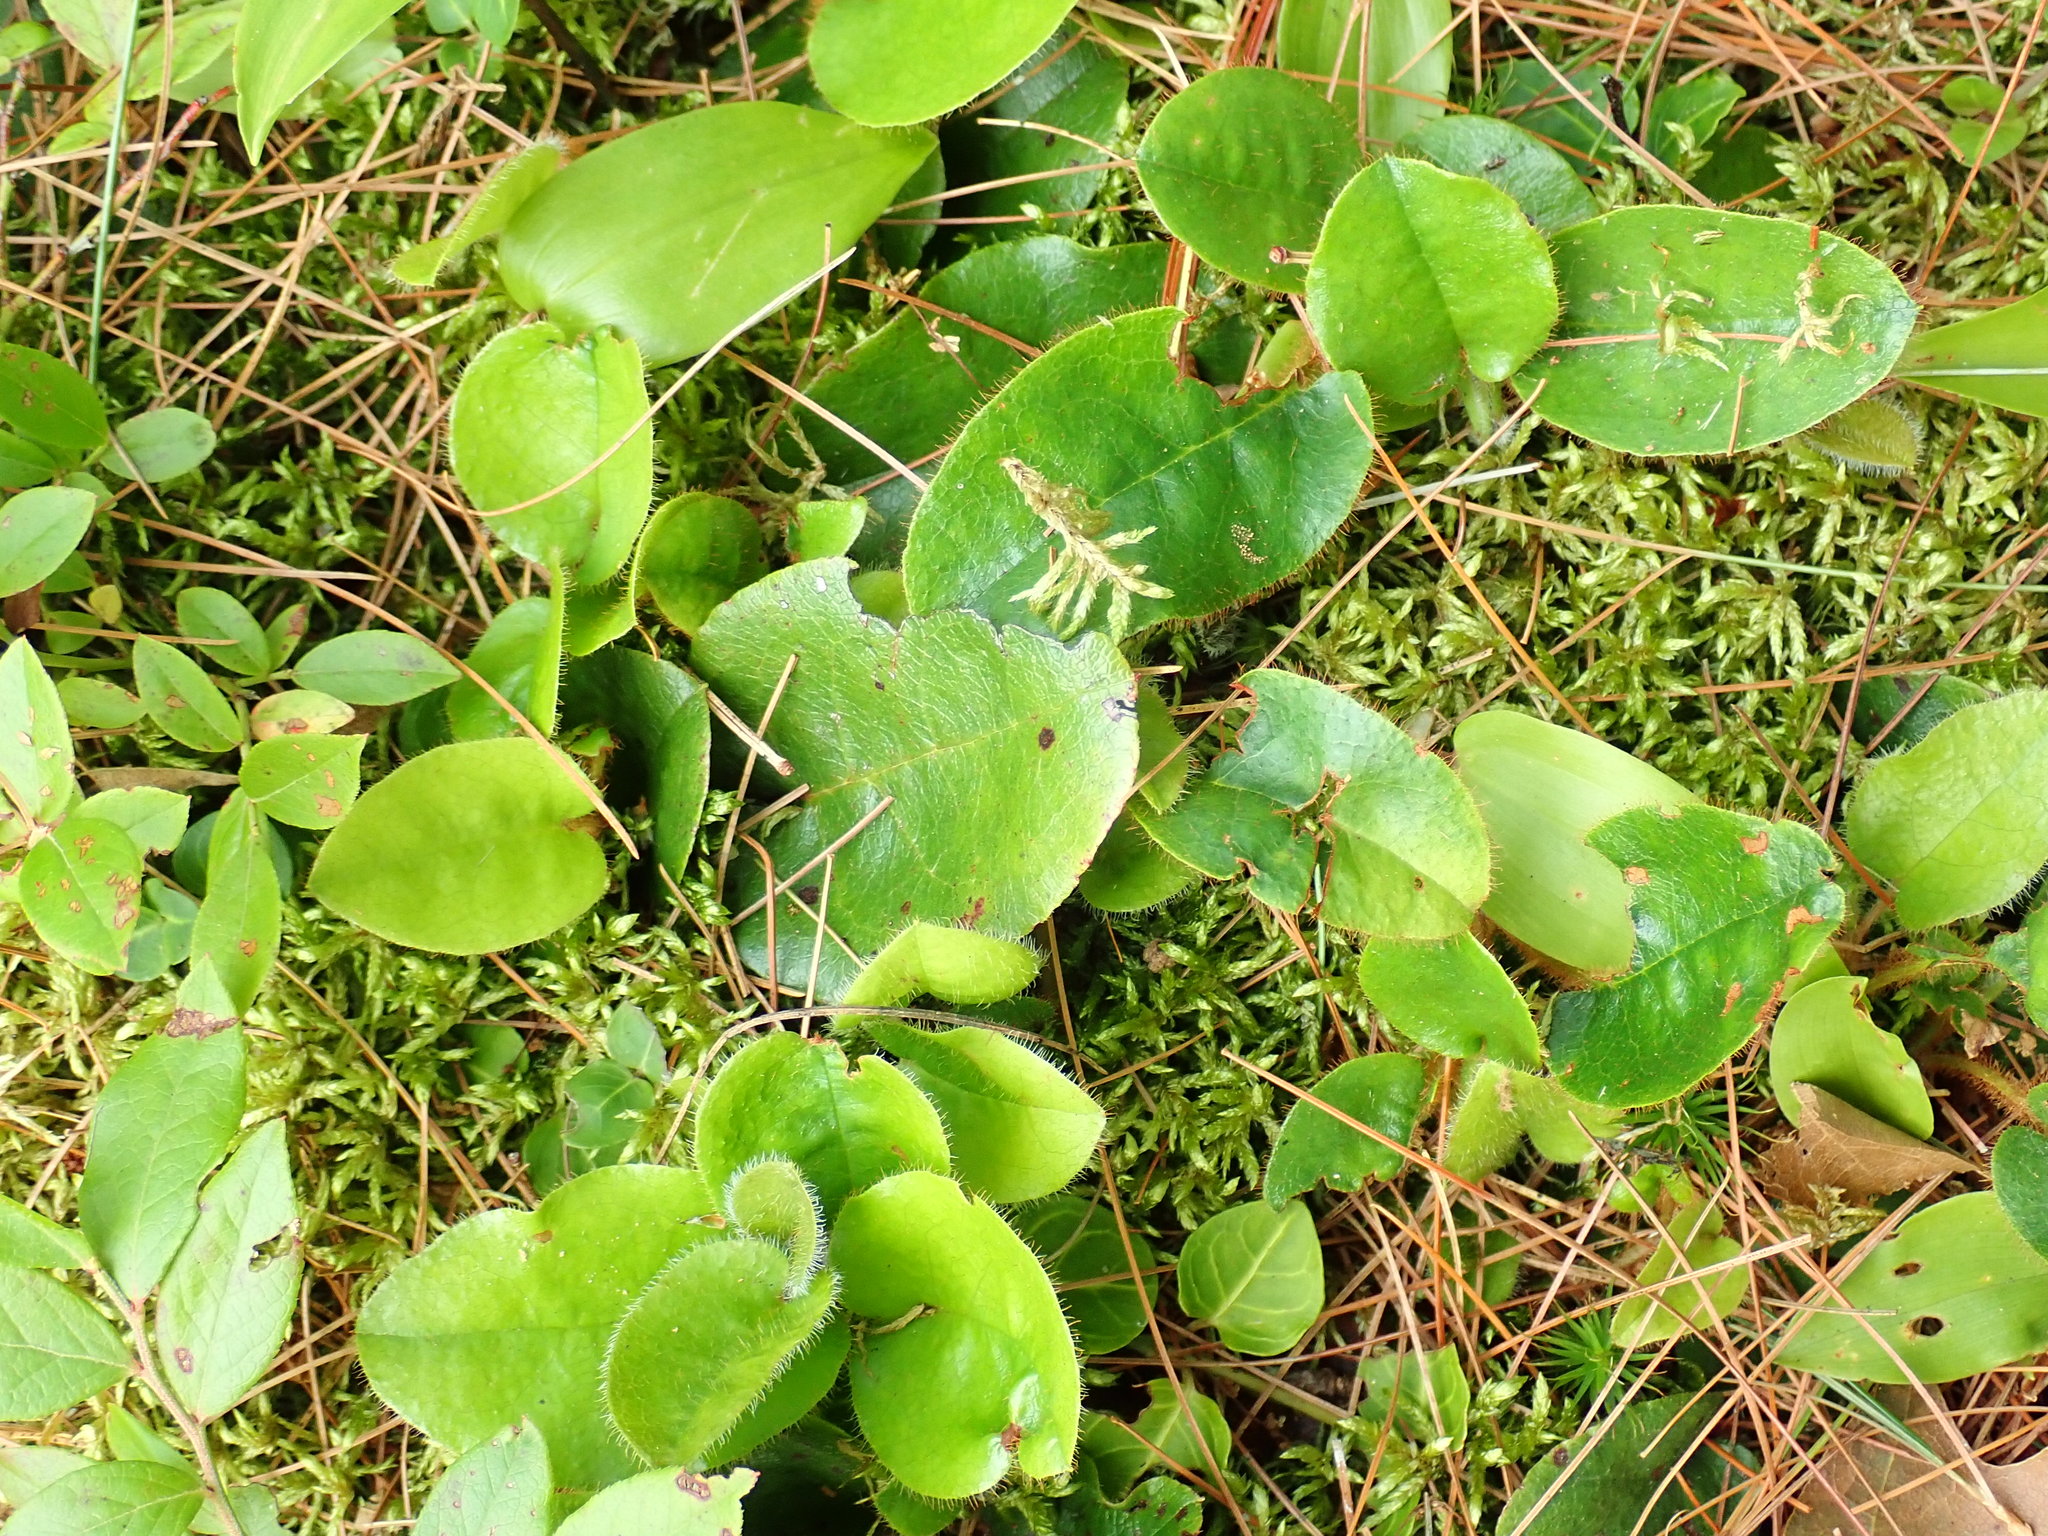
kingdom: Plantae
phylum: Tracheophyta
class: Magnoliopsida
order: Ericales
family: Ericaceae
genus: Epigaea
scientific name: Epigaea repens
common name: Gravelroot
